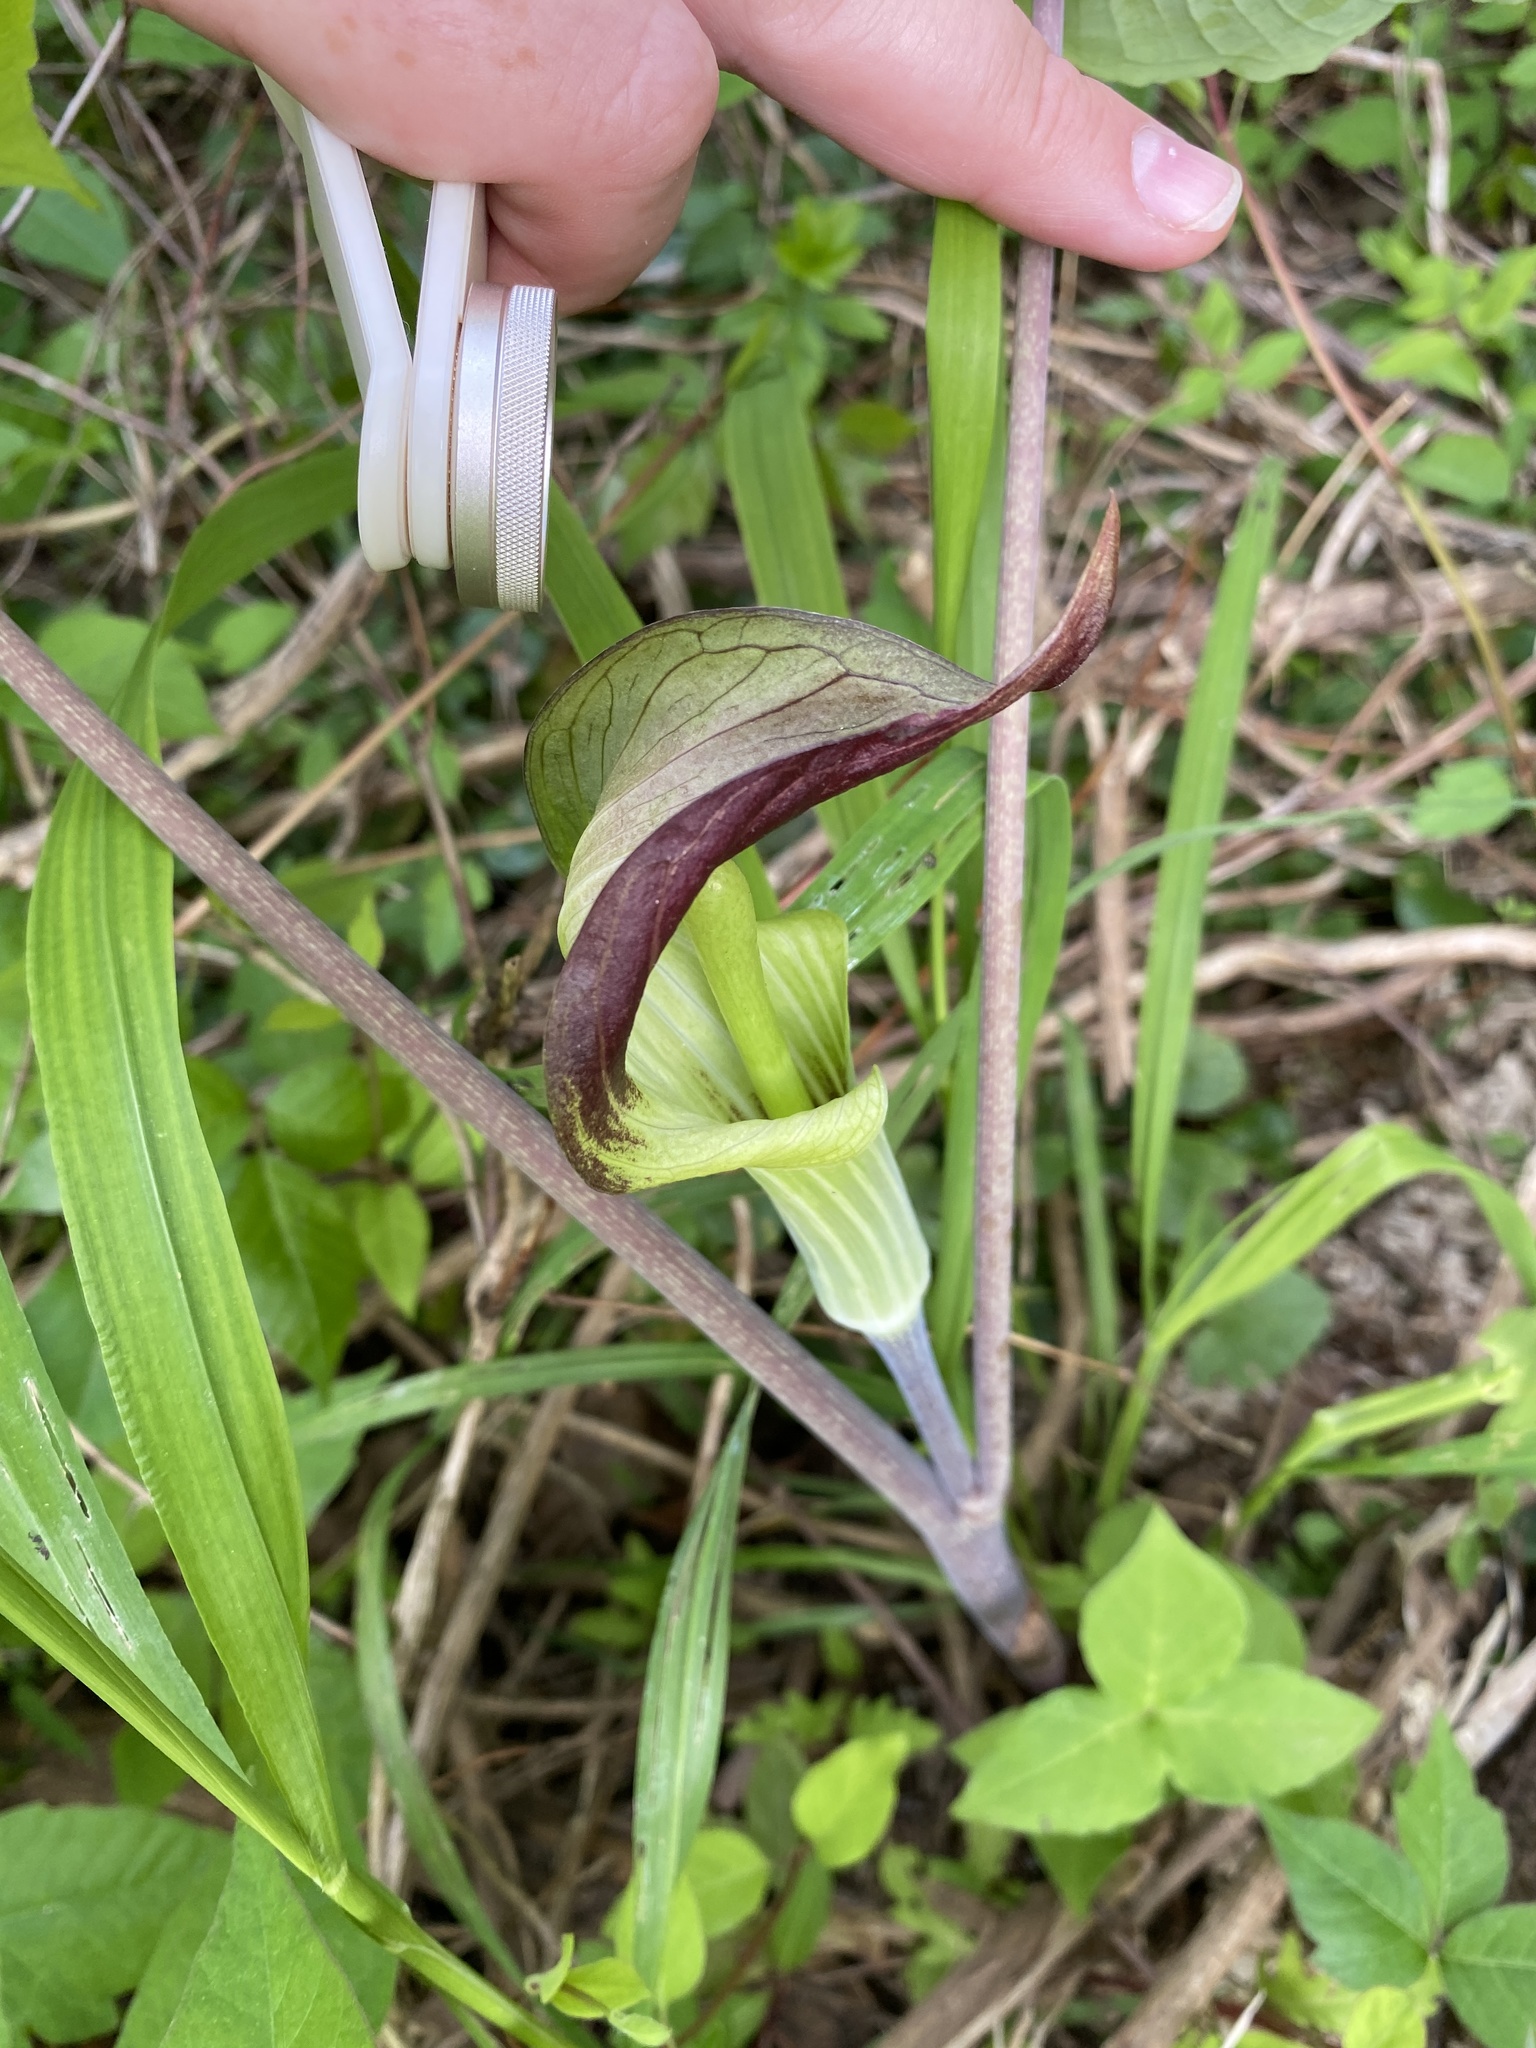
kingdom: Plantae
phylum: Tracheophyta
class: Liliopsida
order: Alismatales
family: Araceae
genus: Arisaema
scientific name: Arisaema triphyllum
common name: Jack-in-the-pulpit
